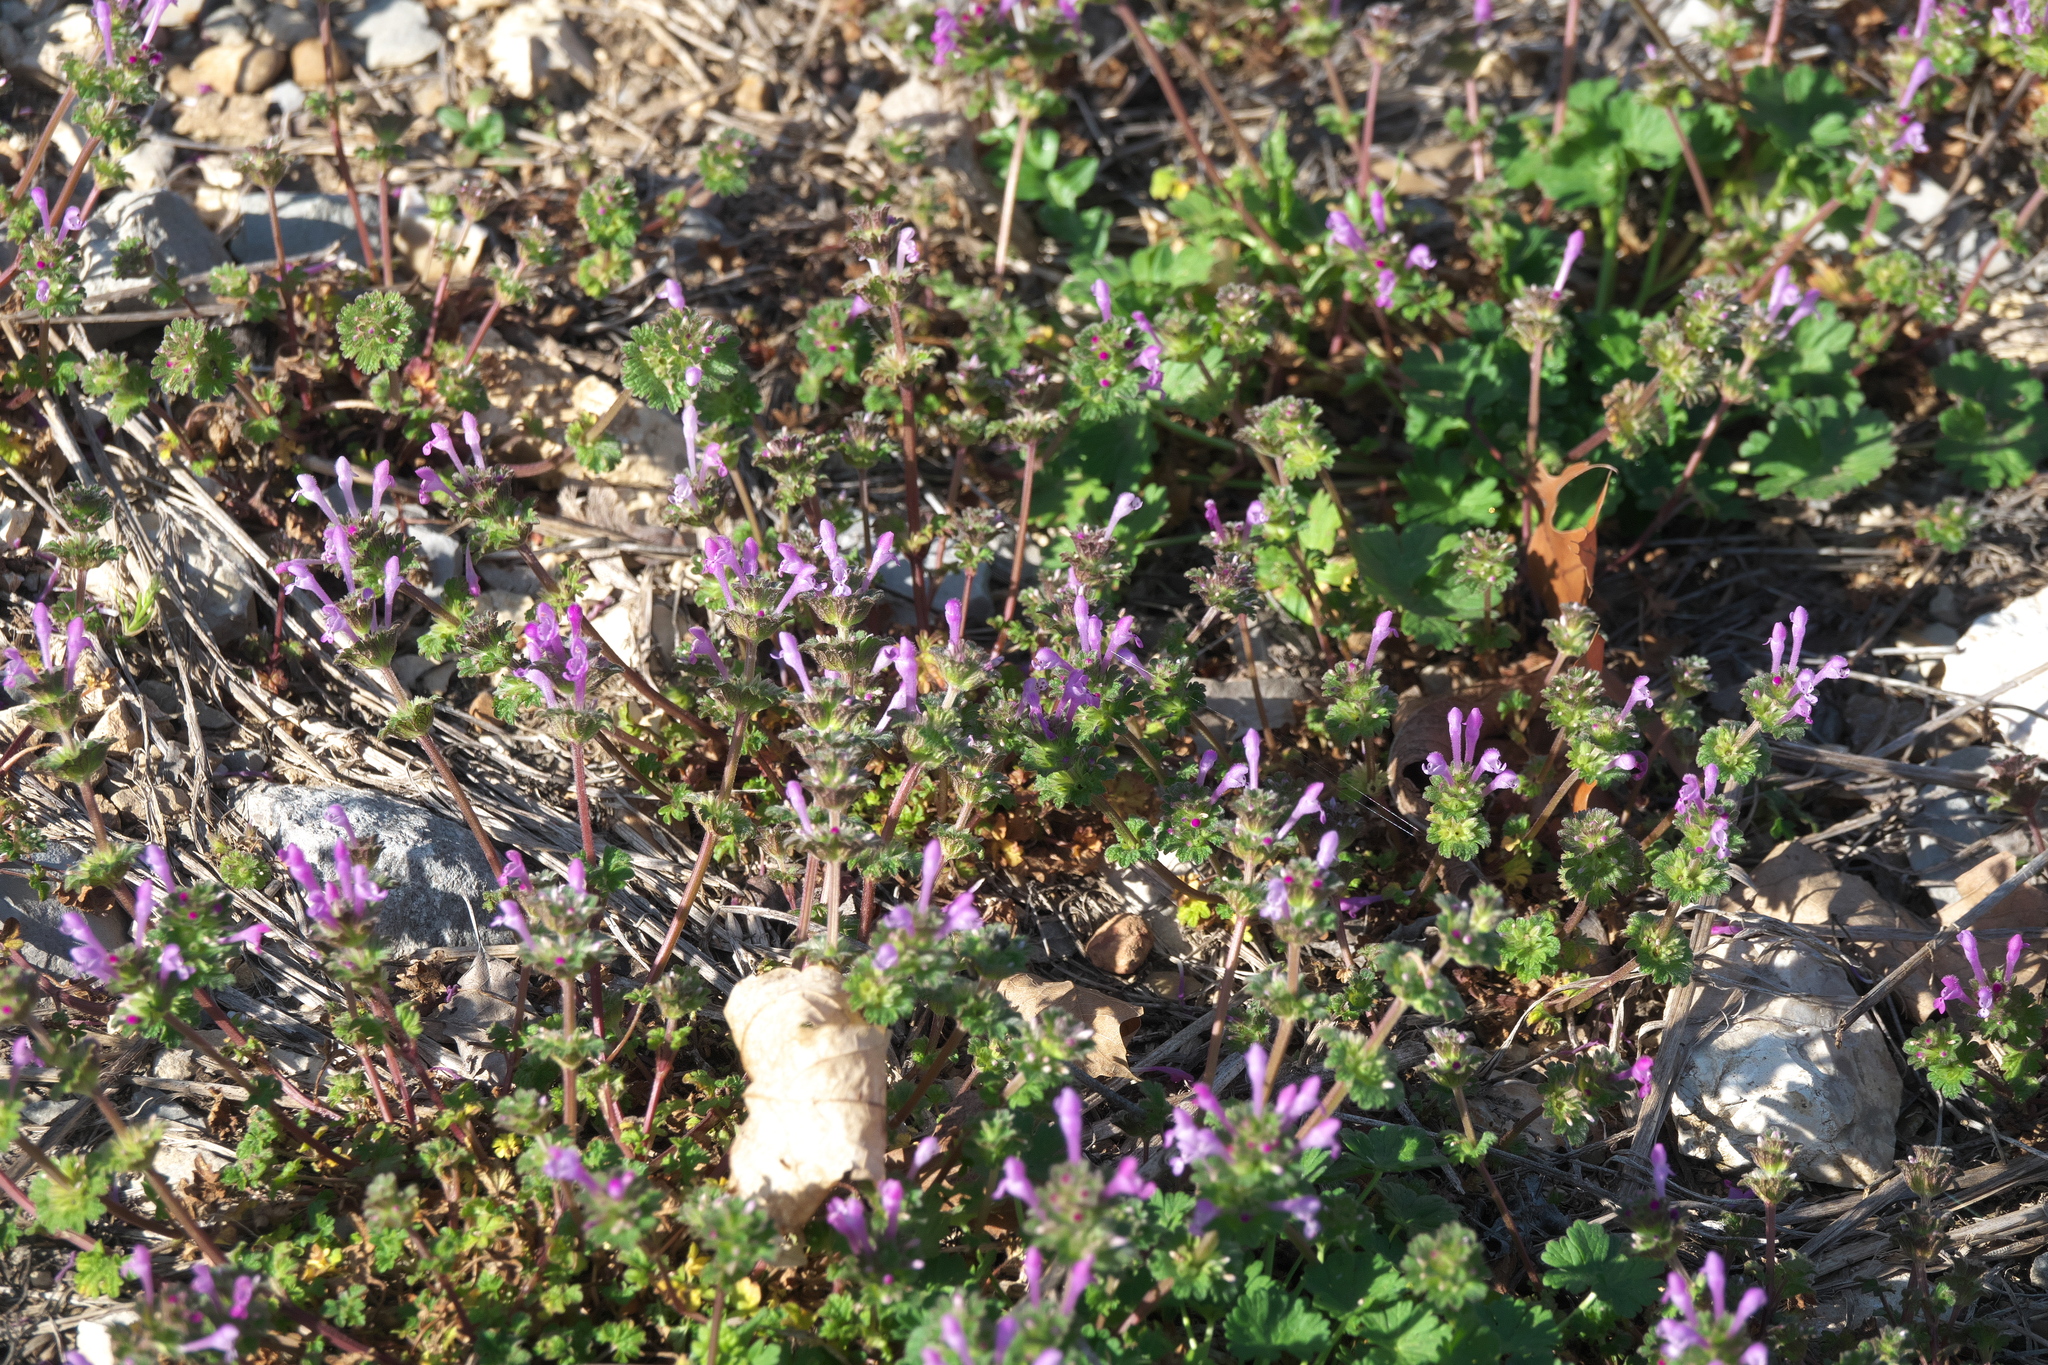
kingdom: Plantae
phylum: Tracheophyta
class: Magnoliopsida
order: Lamiales
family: Lamiaceae
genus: Lamium
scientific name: Lamium amplexicaule
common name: Henbit dead-nettle
